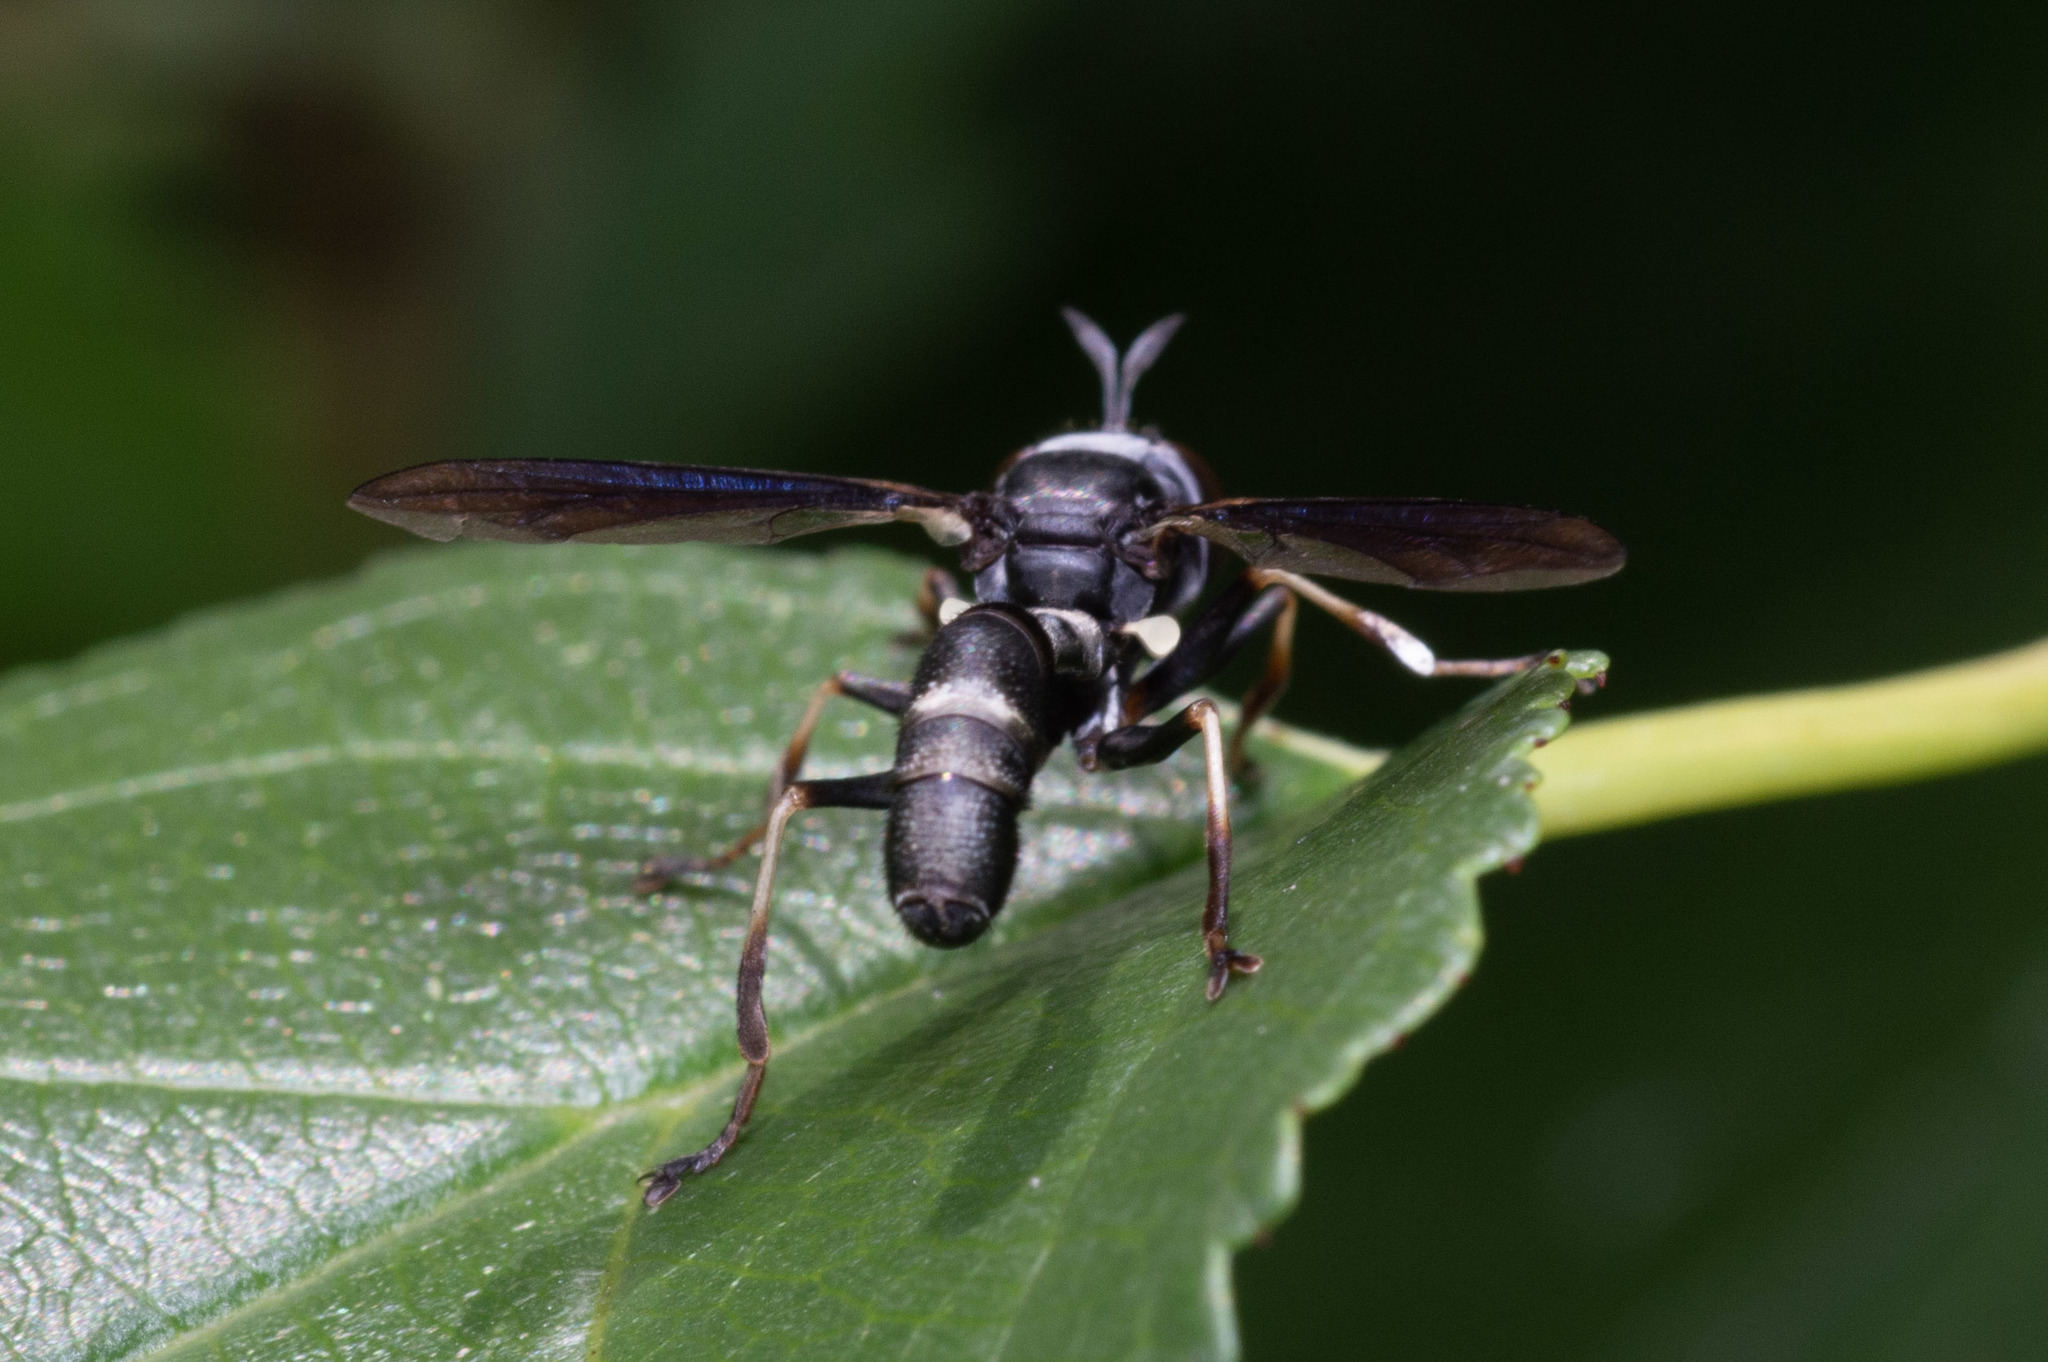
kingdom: Animalia
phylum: Arthropoda
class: Insecta
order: Diptera
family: Conopidae
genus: Physocephala
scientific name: Physocephala tibialis
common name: Common eastern physocephala
